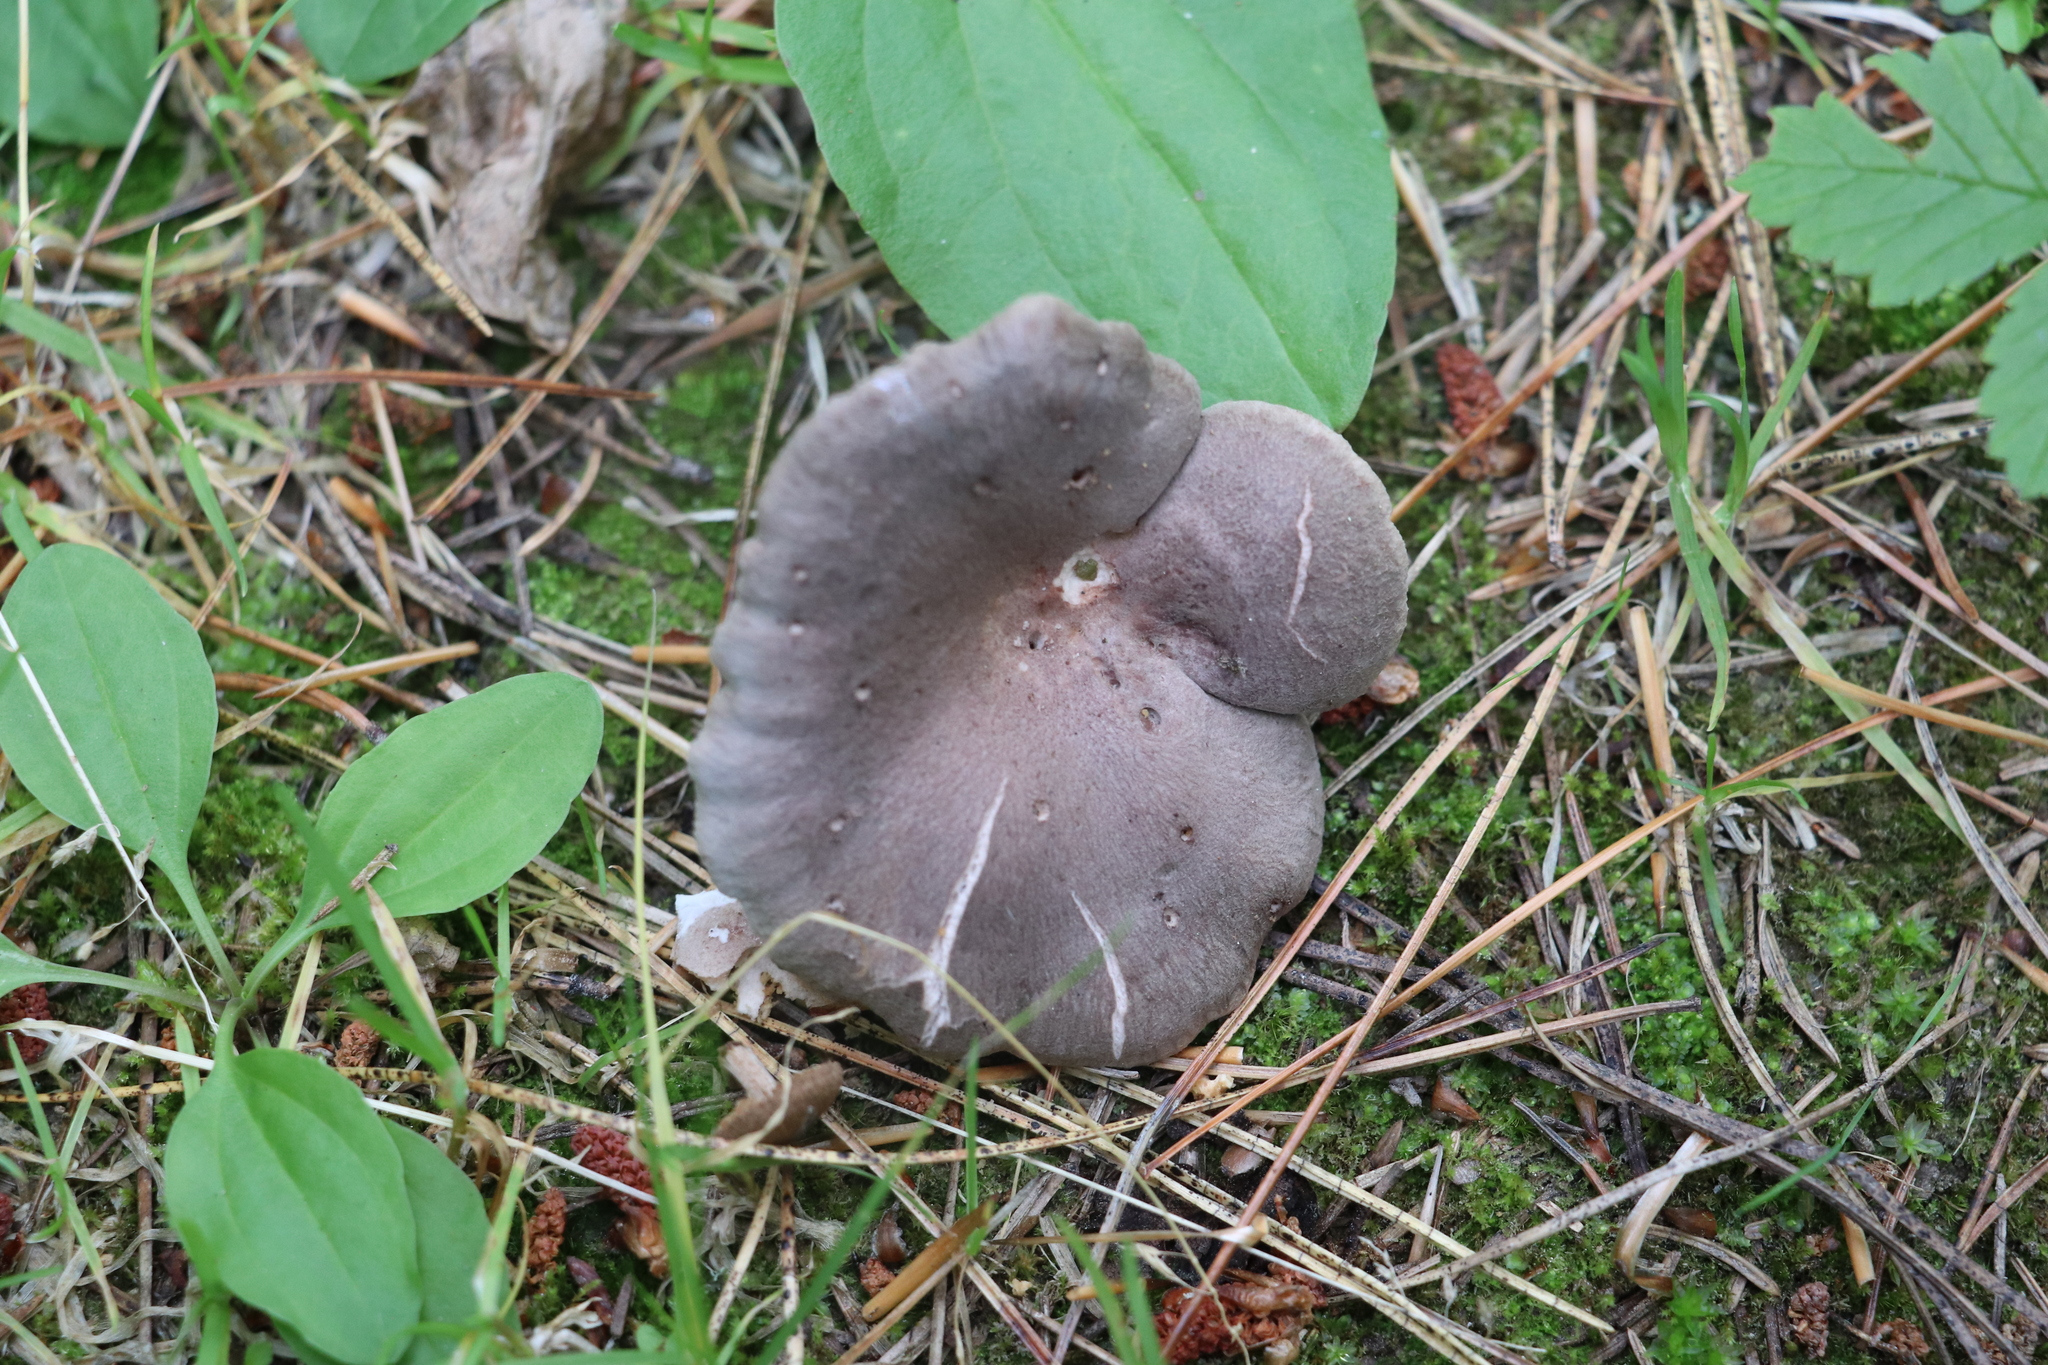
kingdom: Fungi
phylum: Basidiomycota
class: Agaricomycetes
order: Russulales
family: Russulaceae
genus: Lactarius
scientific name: Lactarius mammosus
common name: Pap milkcap
